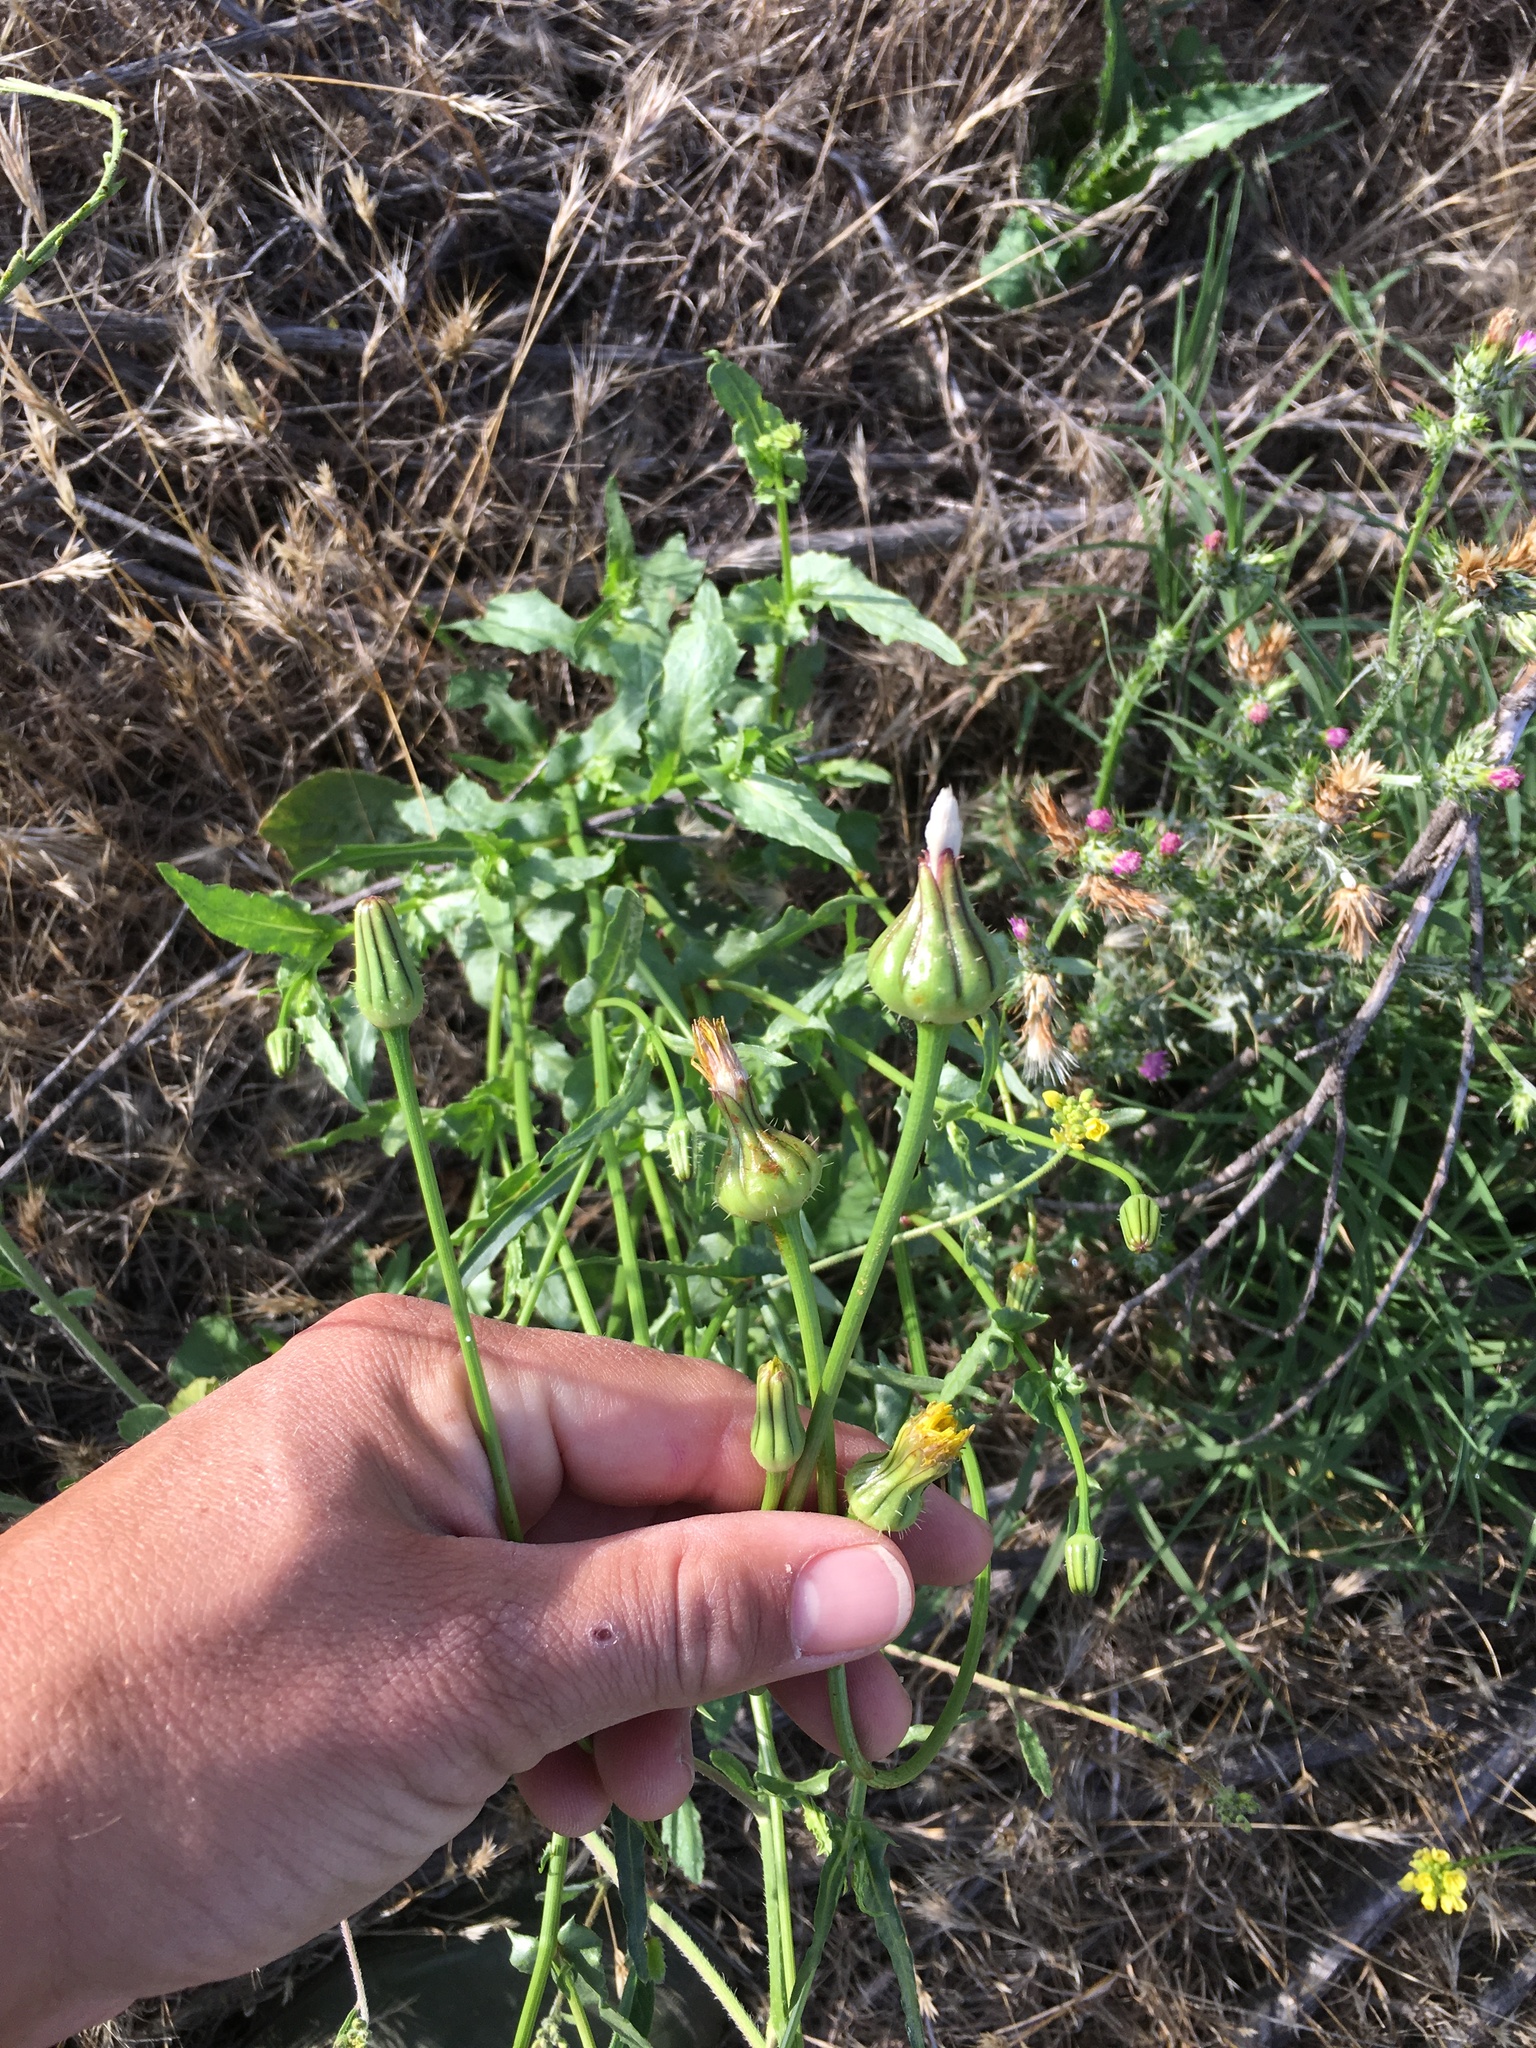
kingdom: Plantae
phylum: Tracheophyta
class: Magnoliopsida
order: Asterales
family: Asteraceae
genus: Urospermum
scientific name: Urospermum picroides
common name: False hawkbit
